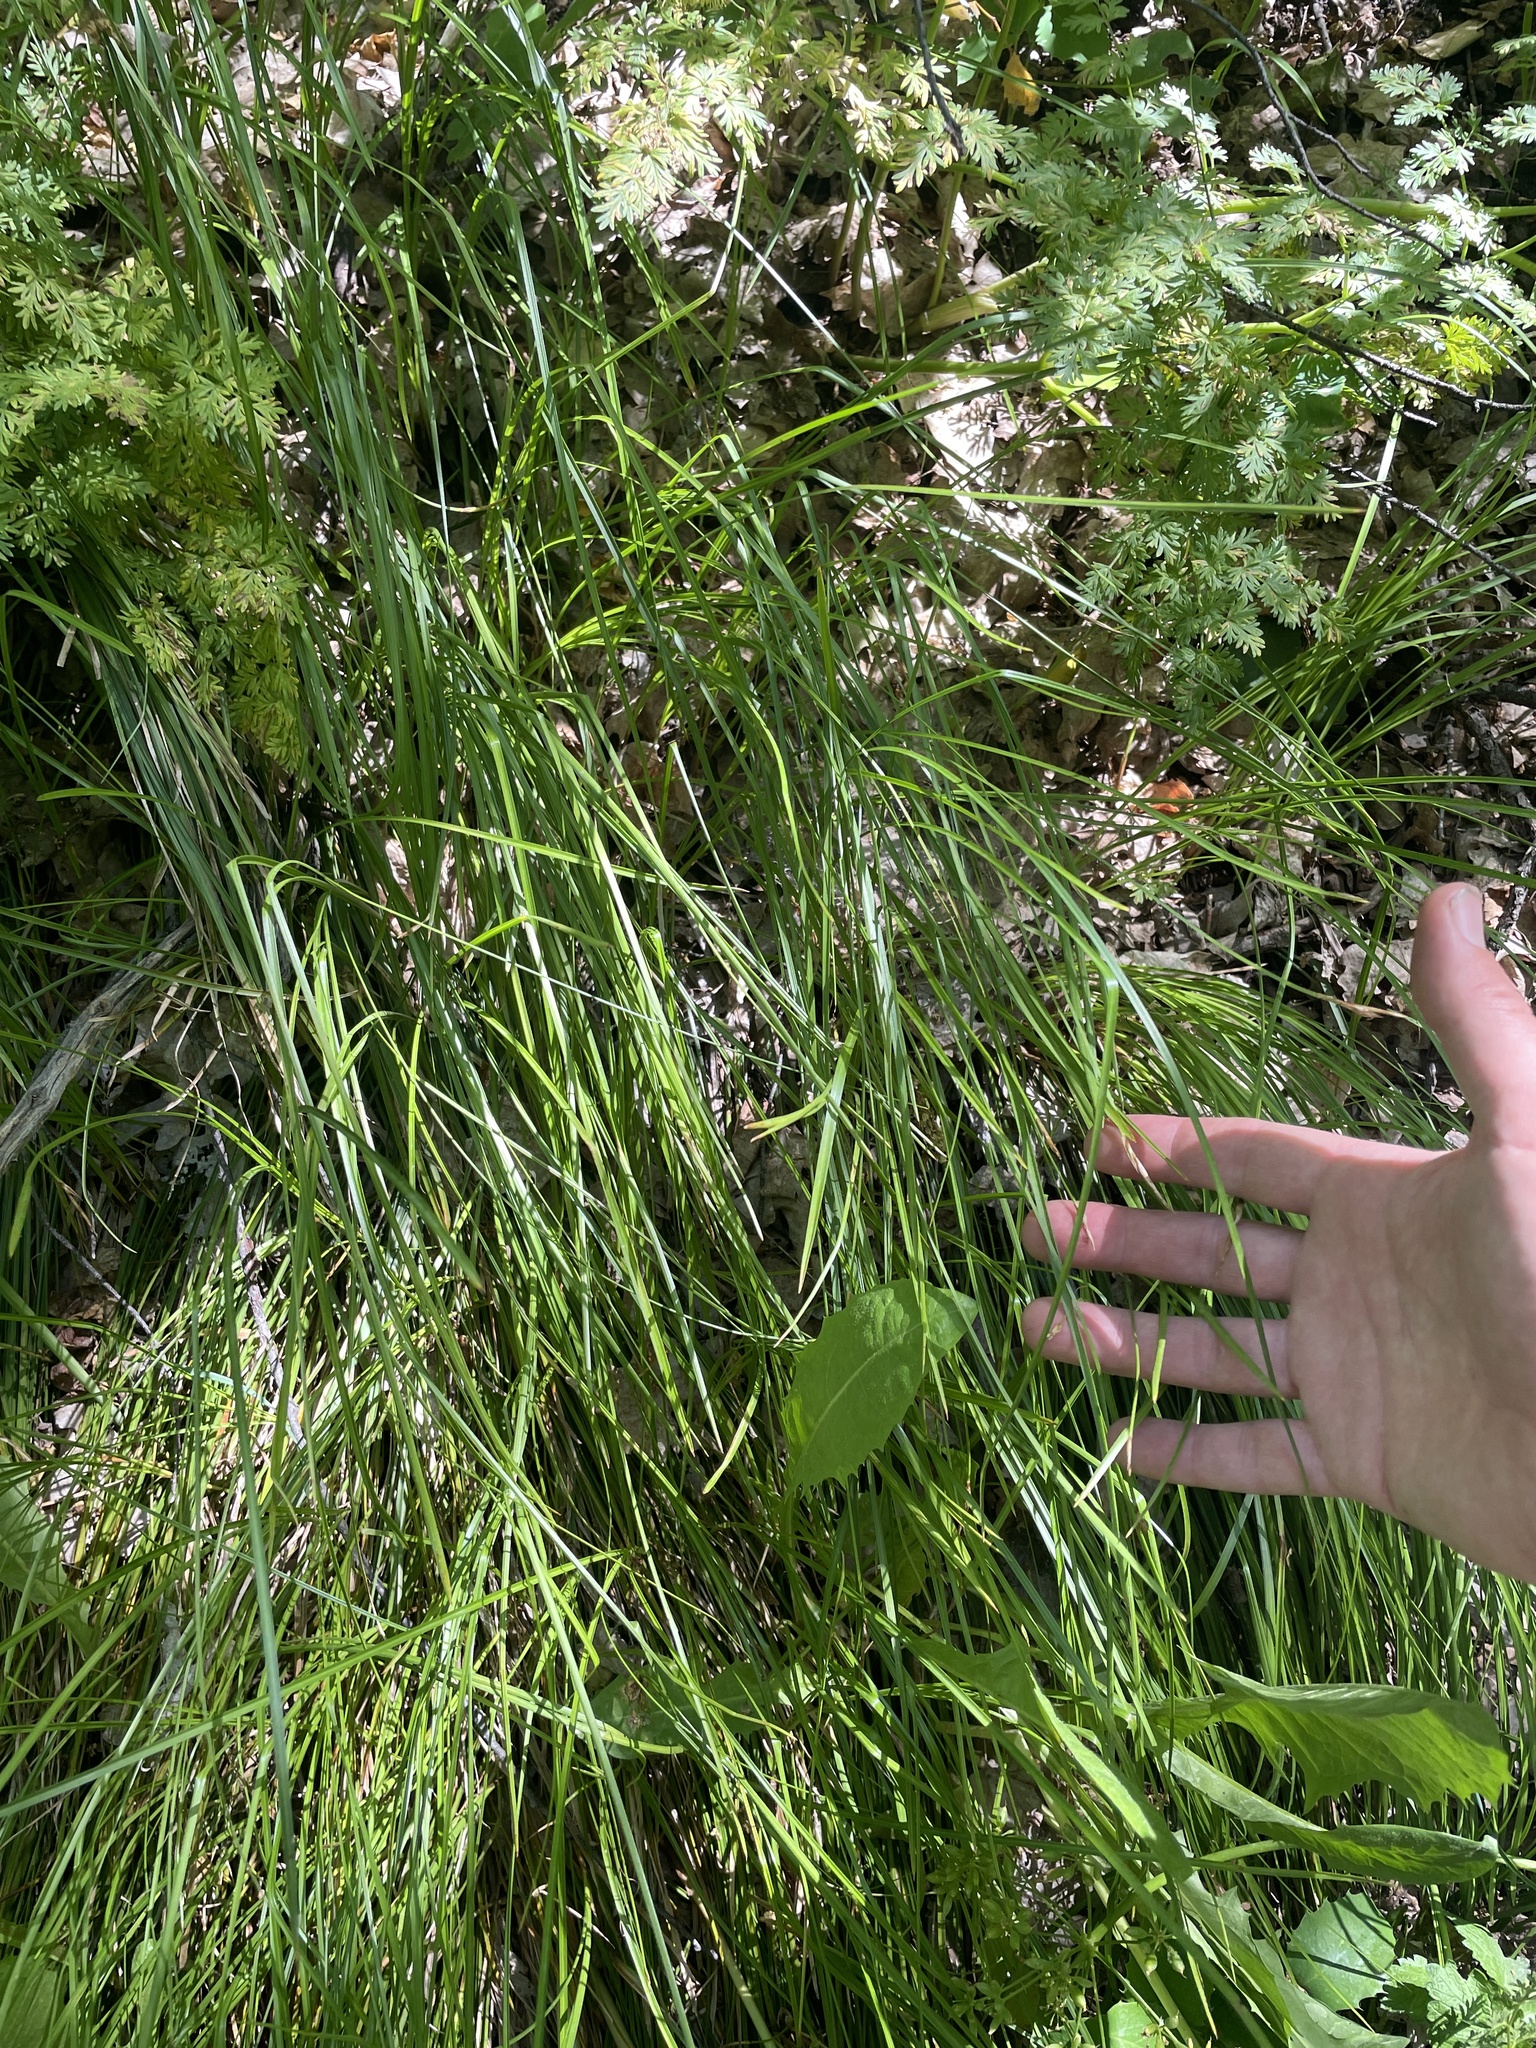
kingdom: Plantae
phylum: Tracheophyta
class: Liliopsida
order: Poales
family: Cyperaceae
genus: Carex
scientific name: Carex geyeri
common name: Elk sedge
